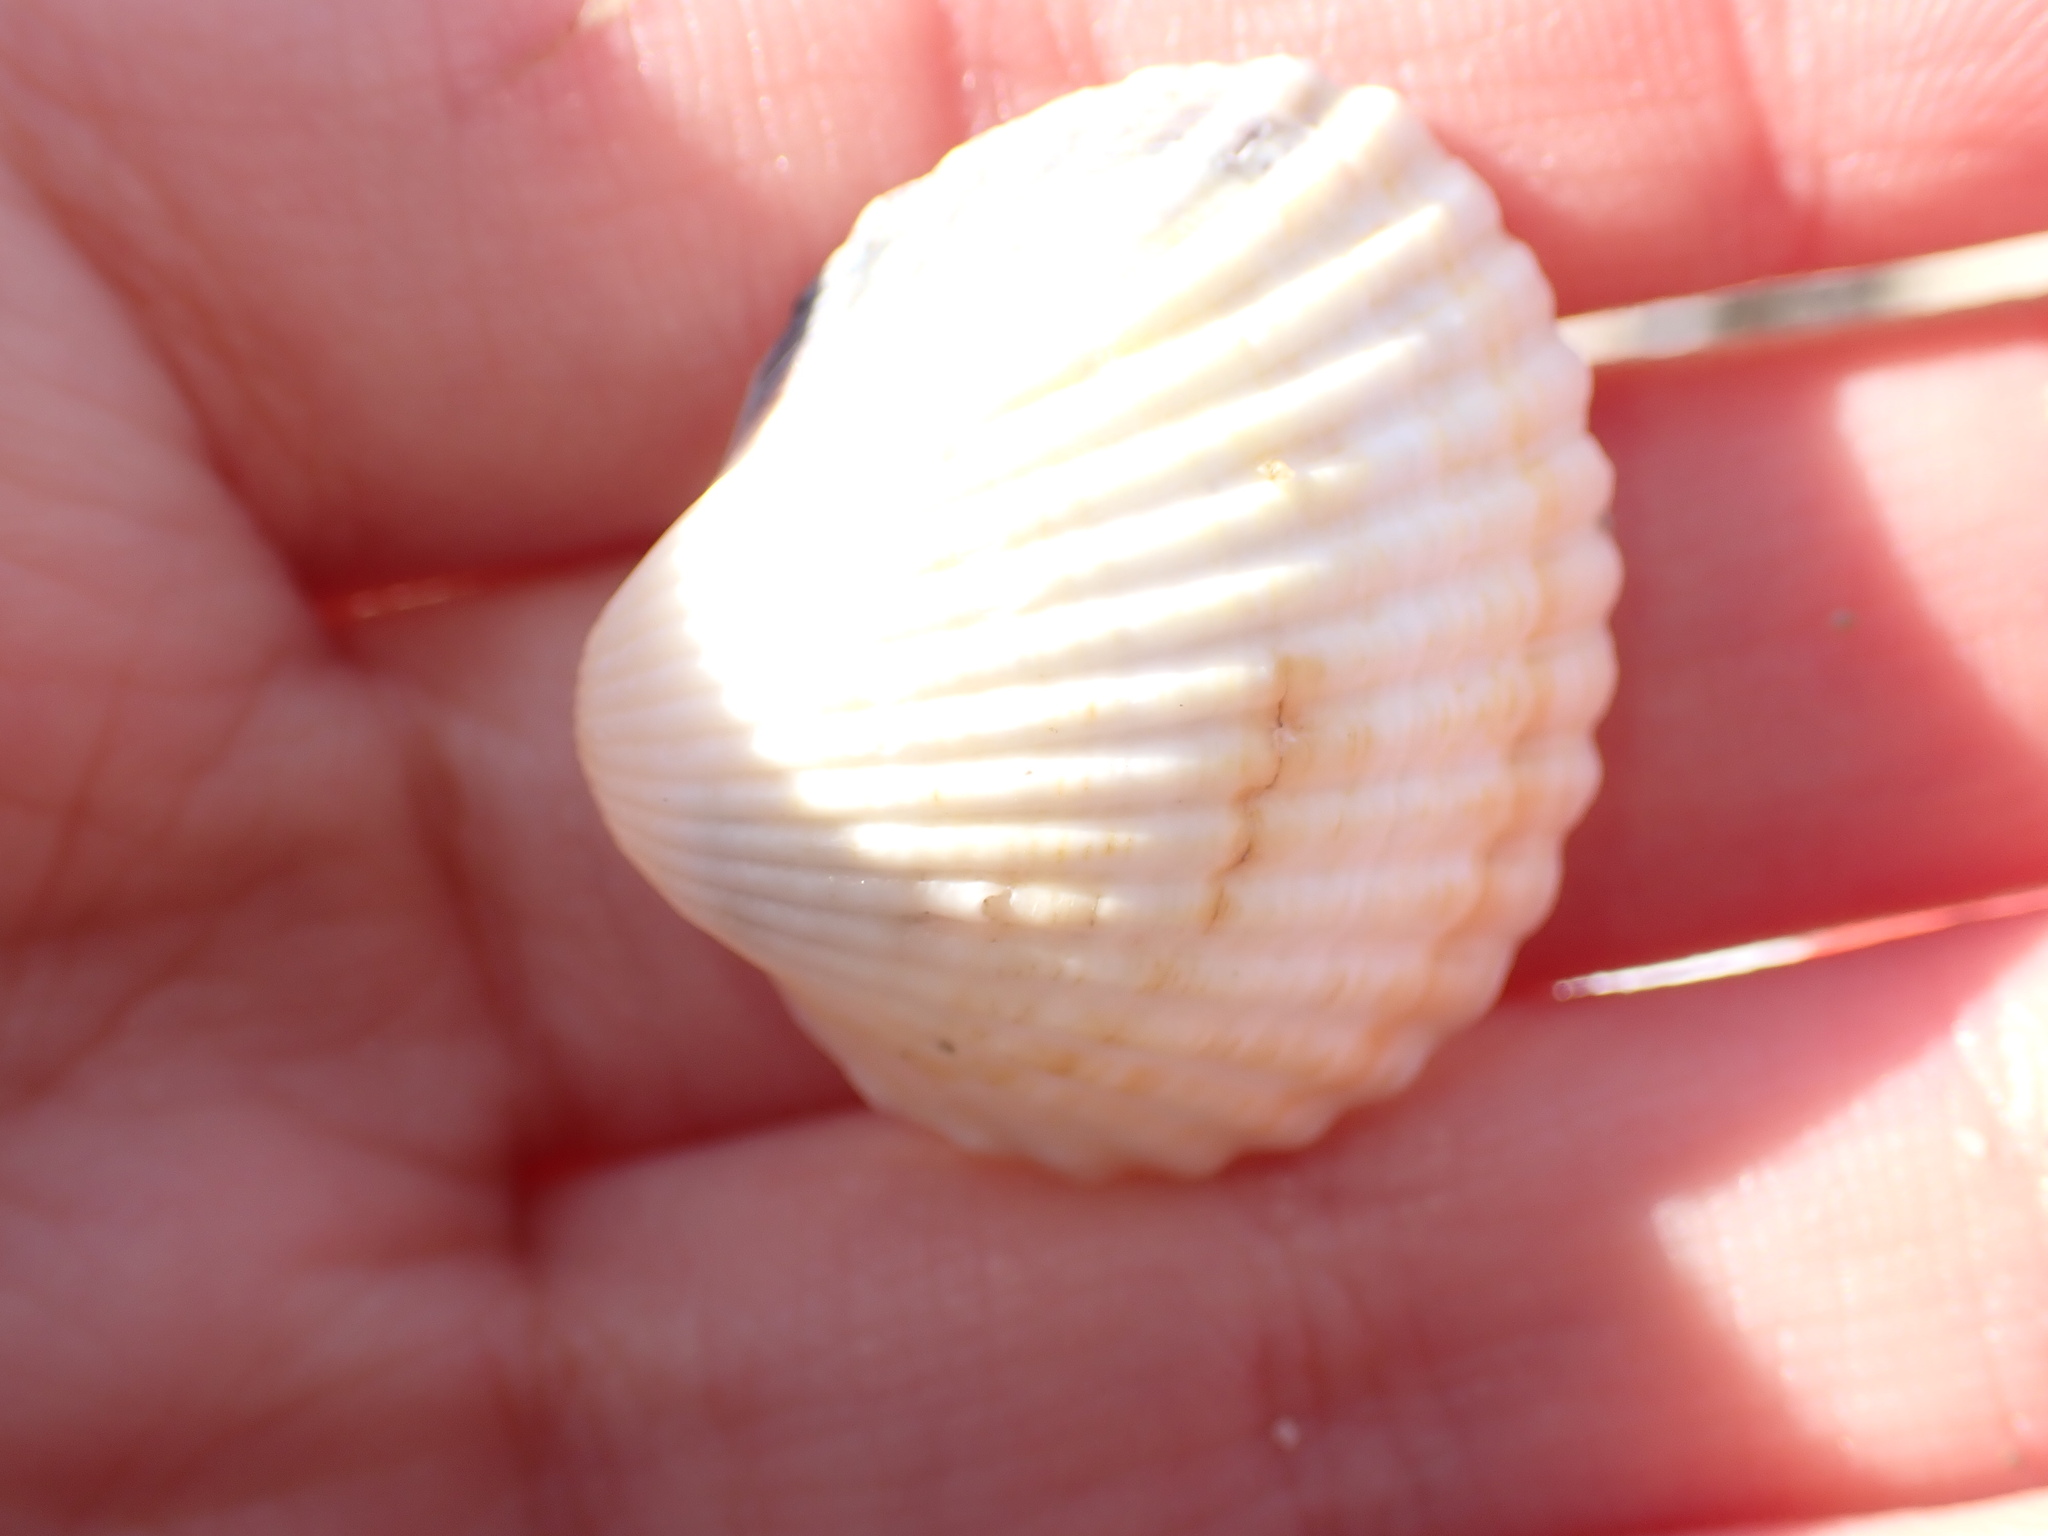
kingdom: Animalia
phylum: Mollusca
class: Bivalvia
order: Cardiida
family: Cardiidae
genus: Cerastoderma
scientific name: Cerastoderma glaucum
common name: Lagoon cockle
